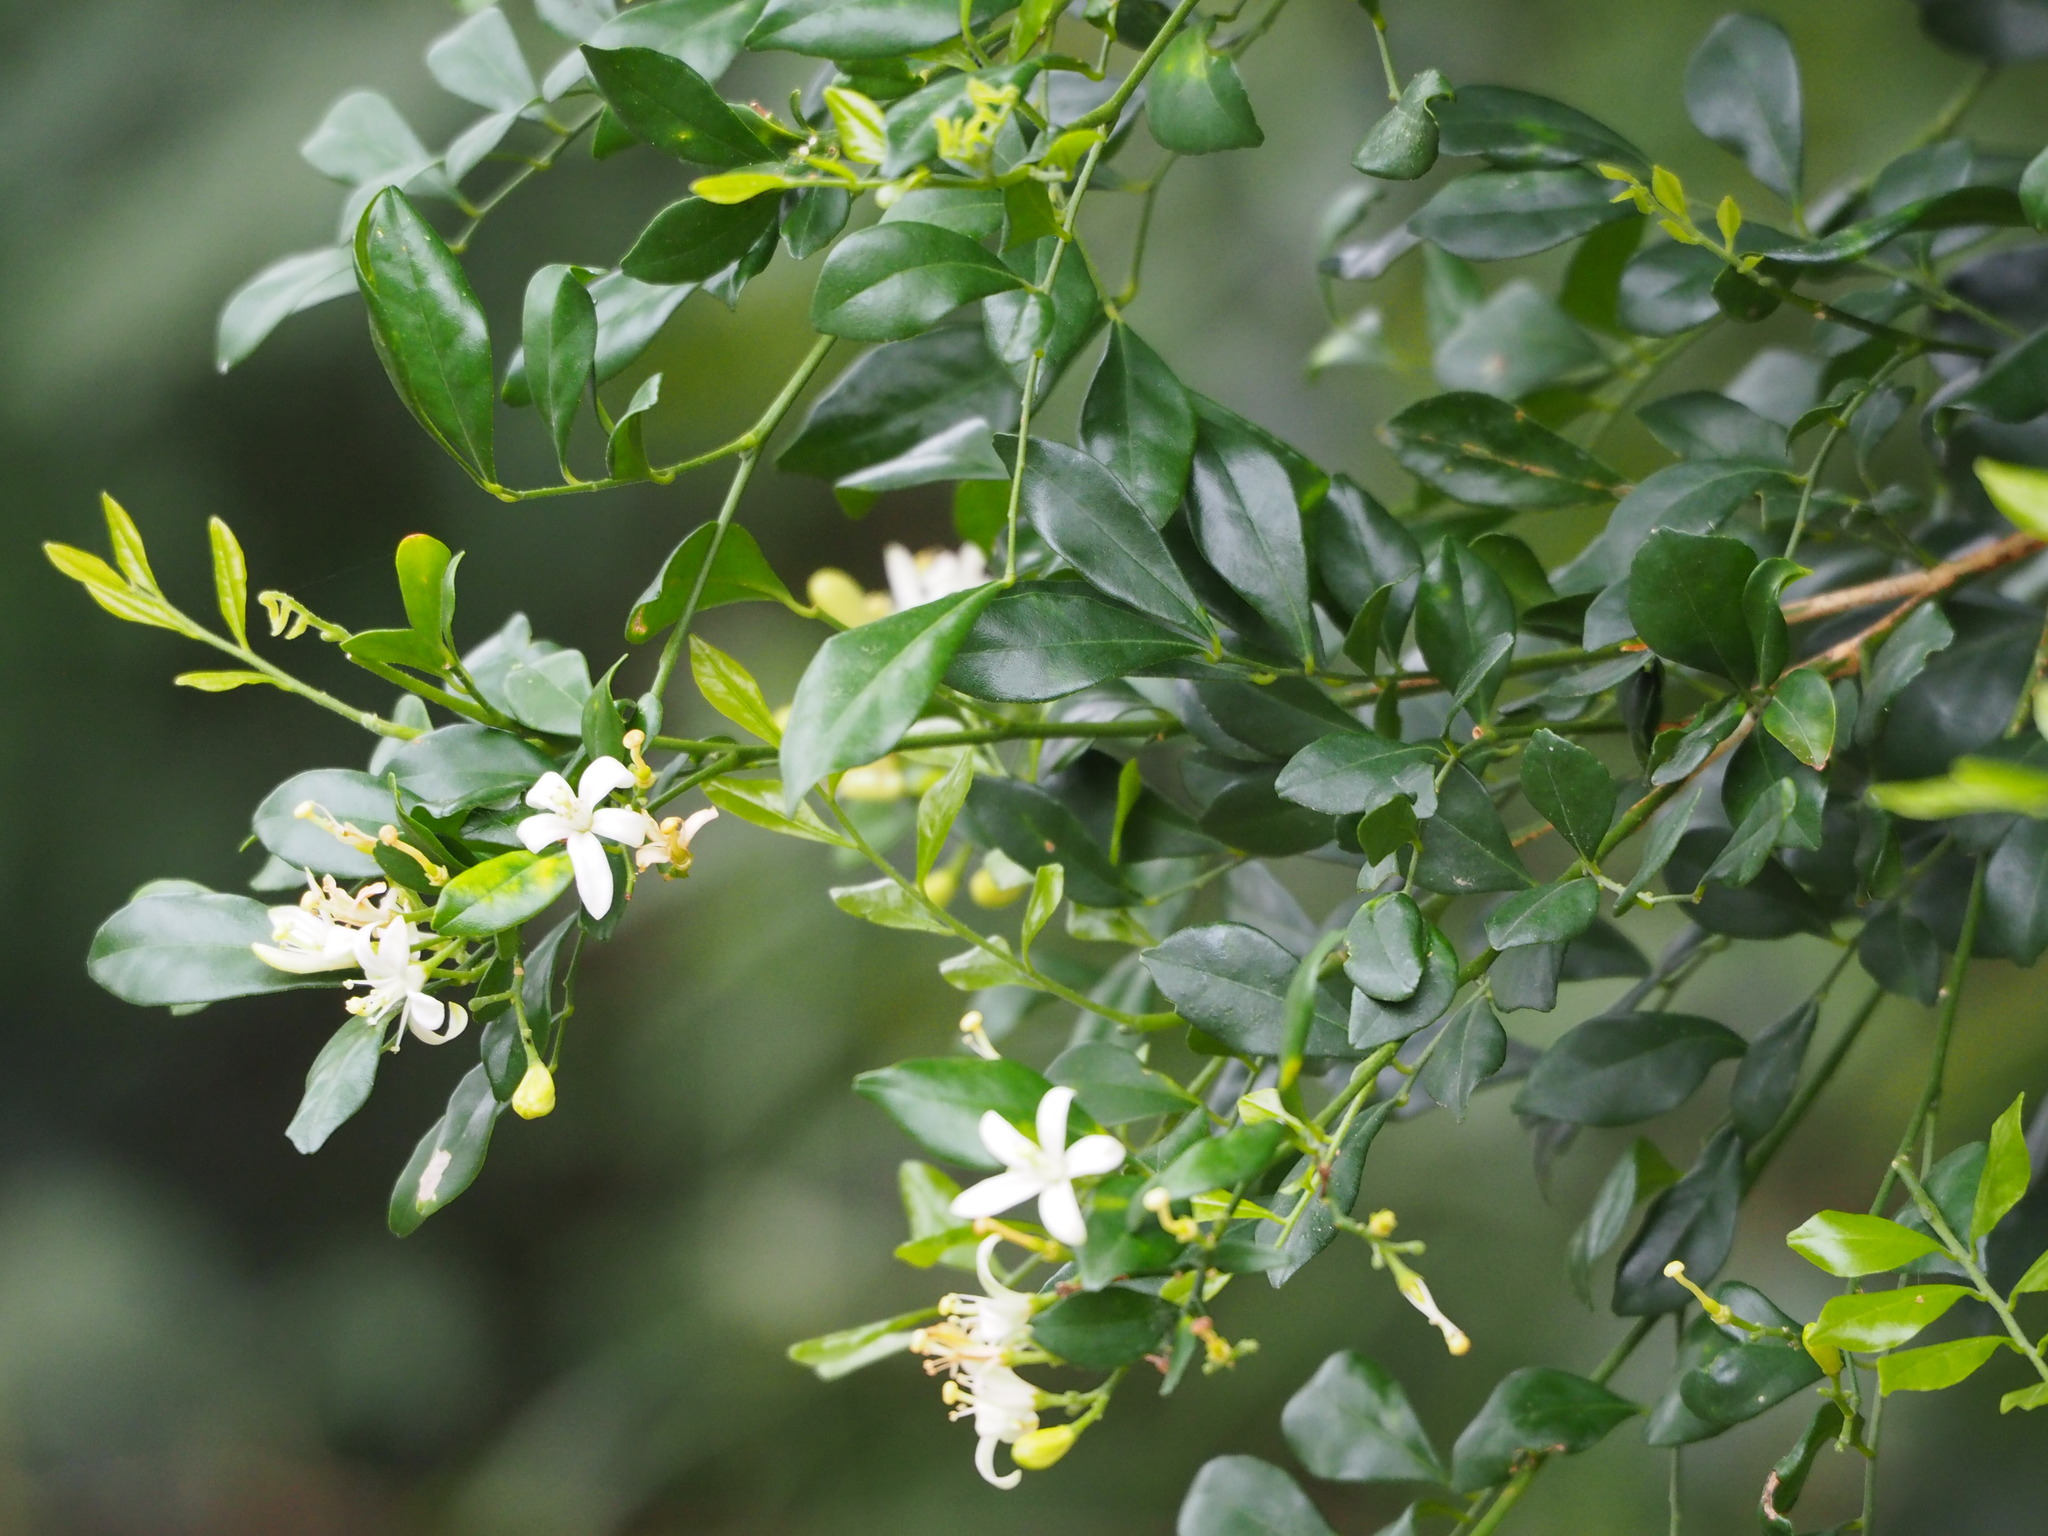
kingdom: Plantae
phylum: Tracheophyta
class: Magnoliopsida
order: Sapindales
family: Rutaceae
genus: Murraya
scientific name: Murraya paniculata
